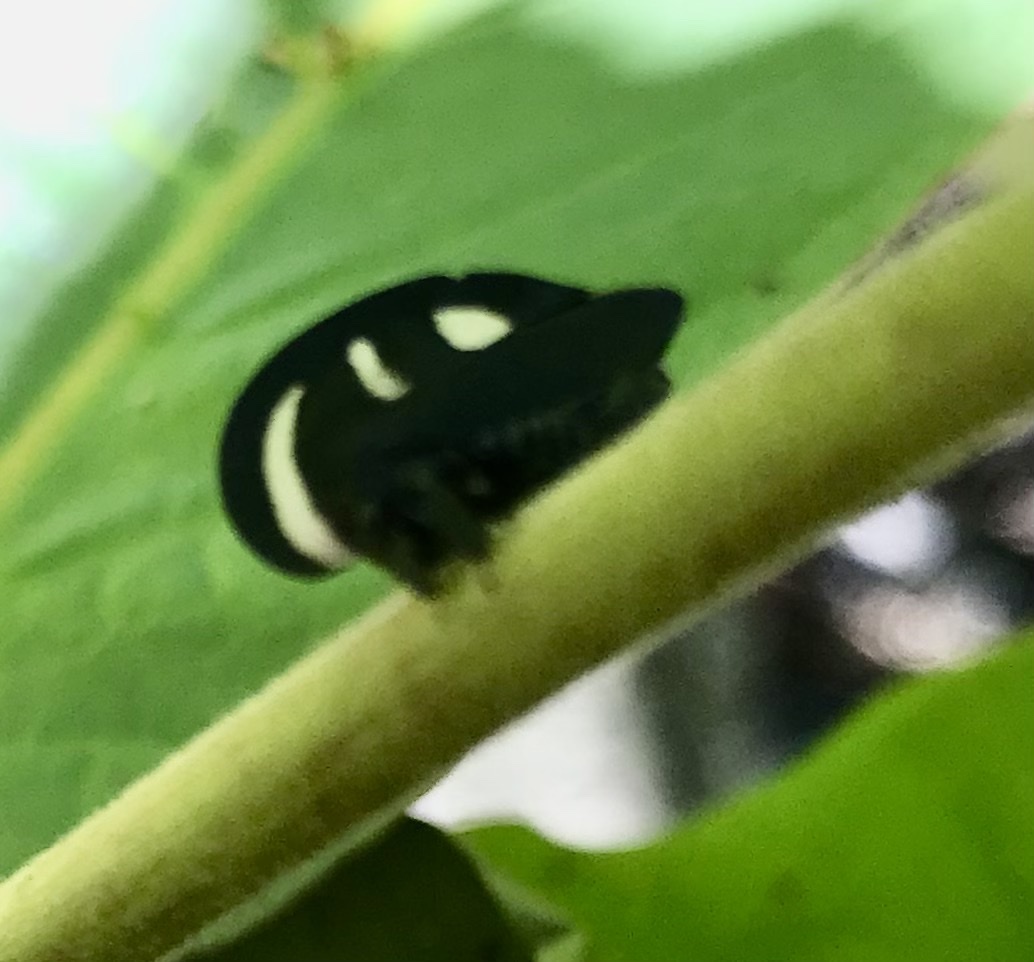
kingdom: Animalia
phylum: Arthropoda
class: Insecta
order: Hemiptera
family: Membracidae
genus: Membracis
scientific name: Membracis
